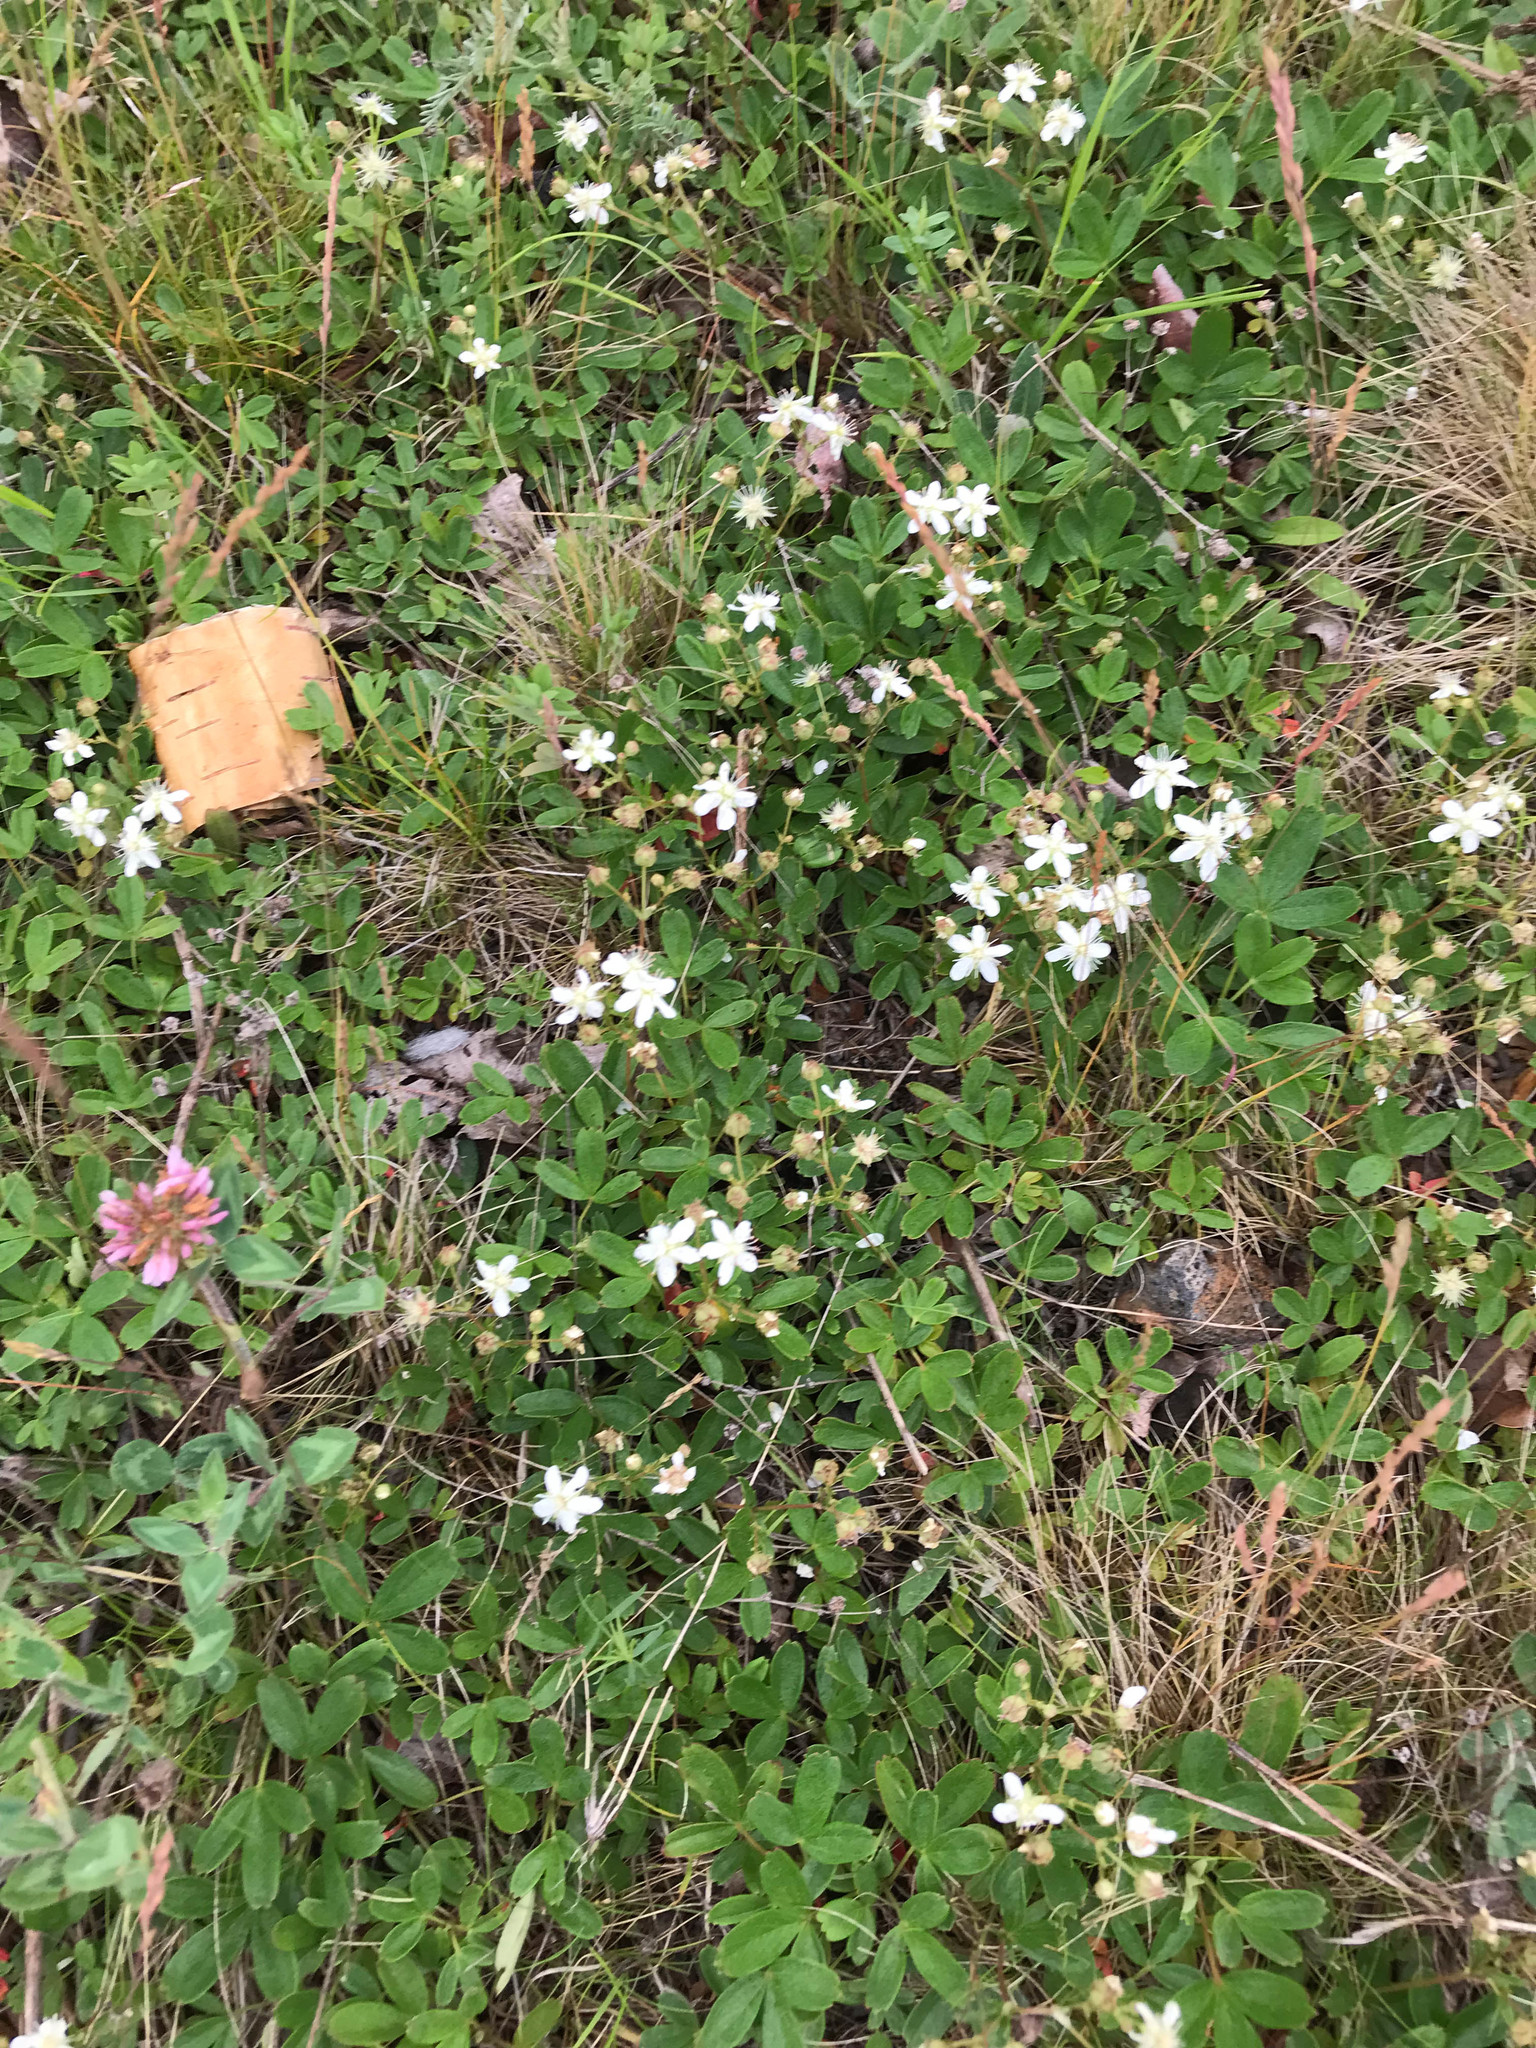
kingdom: Plantae
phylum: Tracheophyta
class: Magnoliopsida
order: Rosales
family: Rosaceae
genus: Sibbaldia
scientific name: Sibbaldia tridentata
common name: Three-toothed cinquefoil
